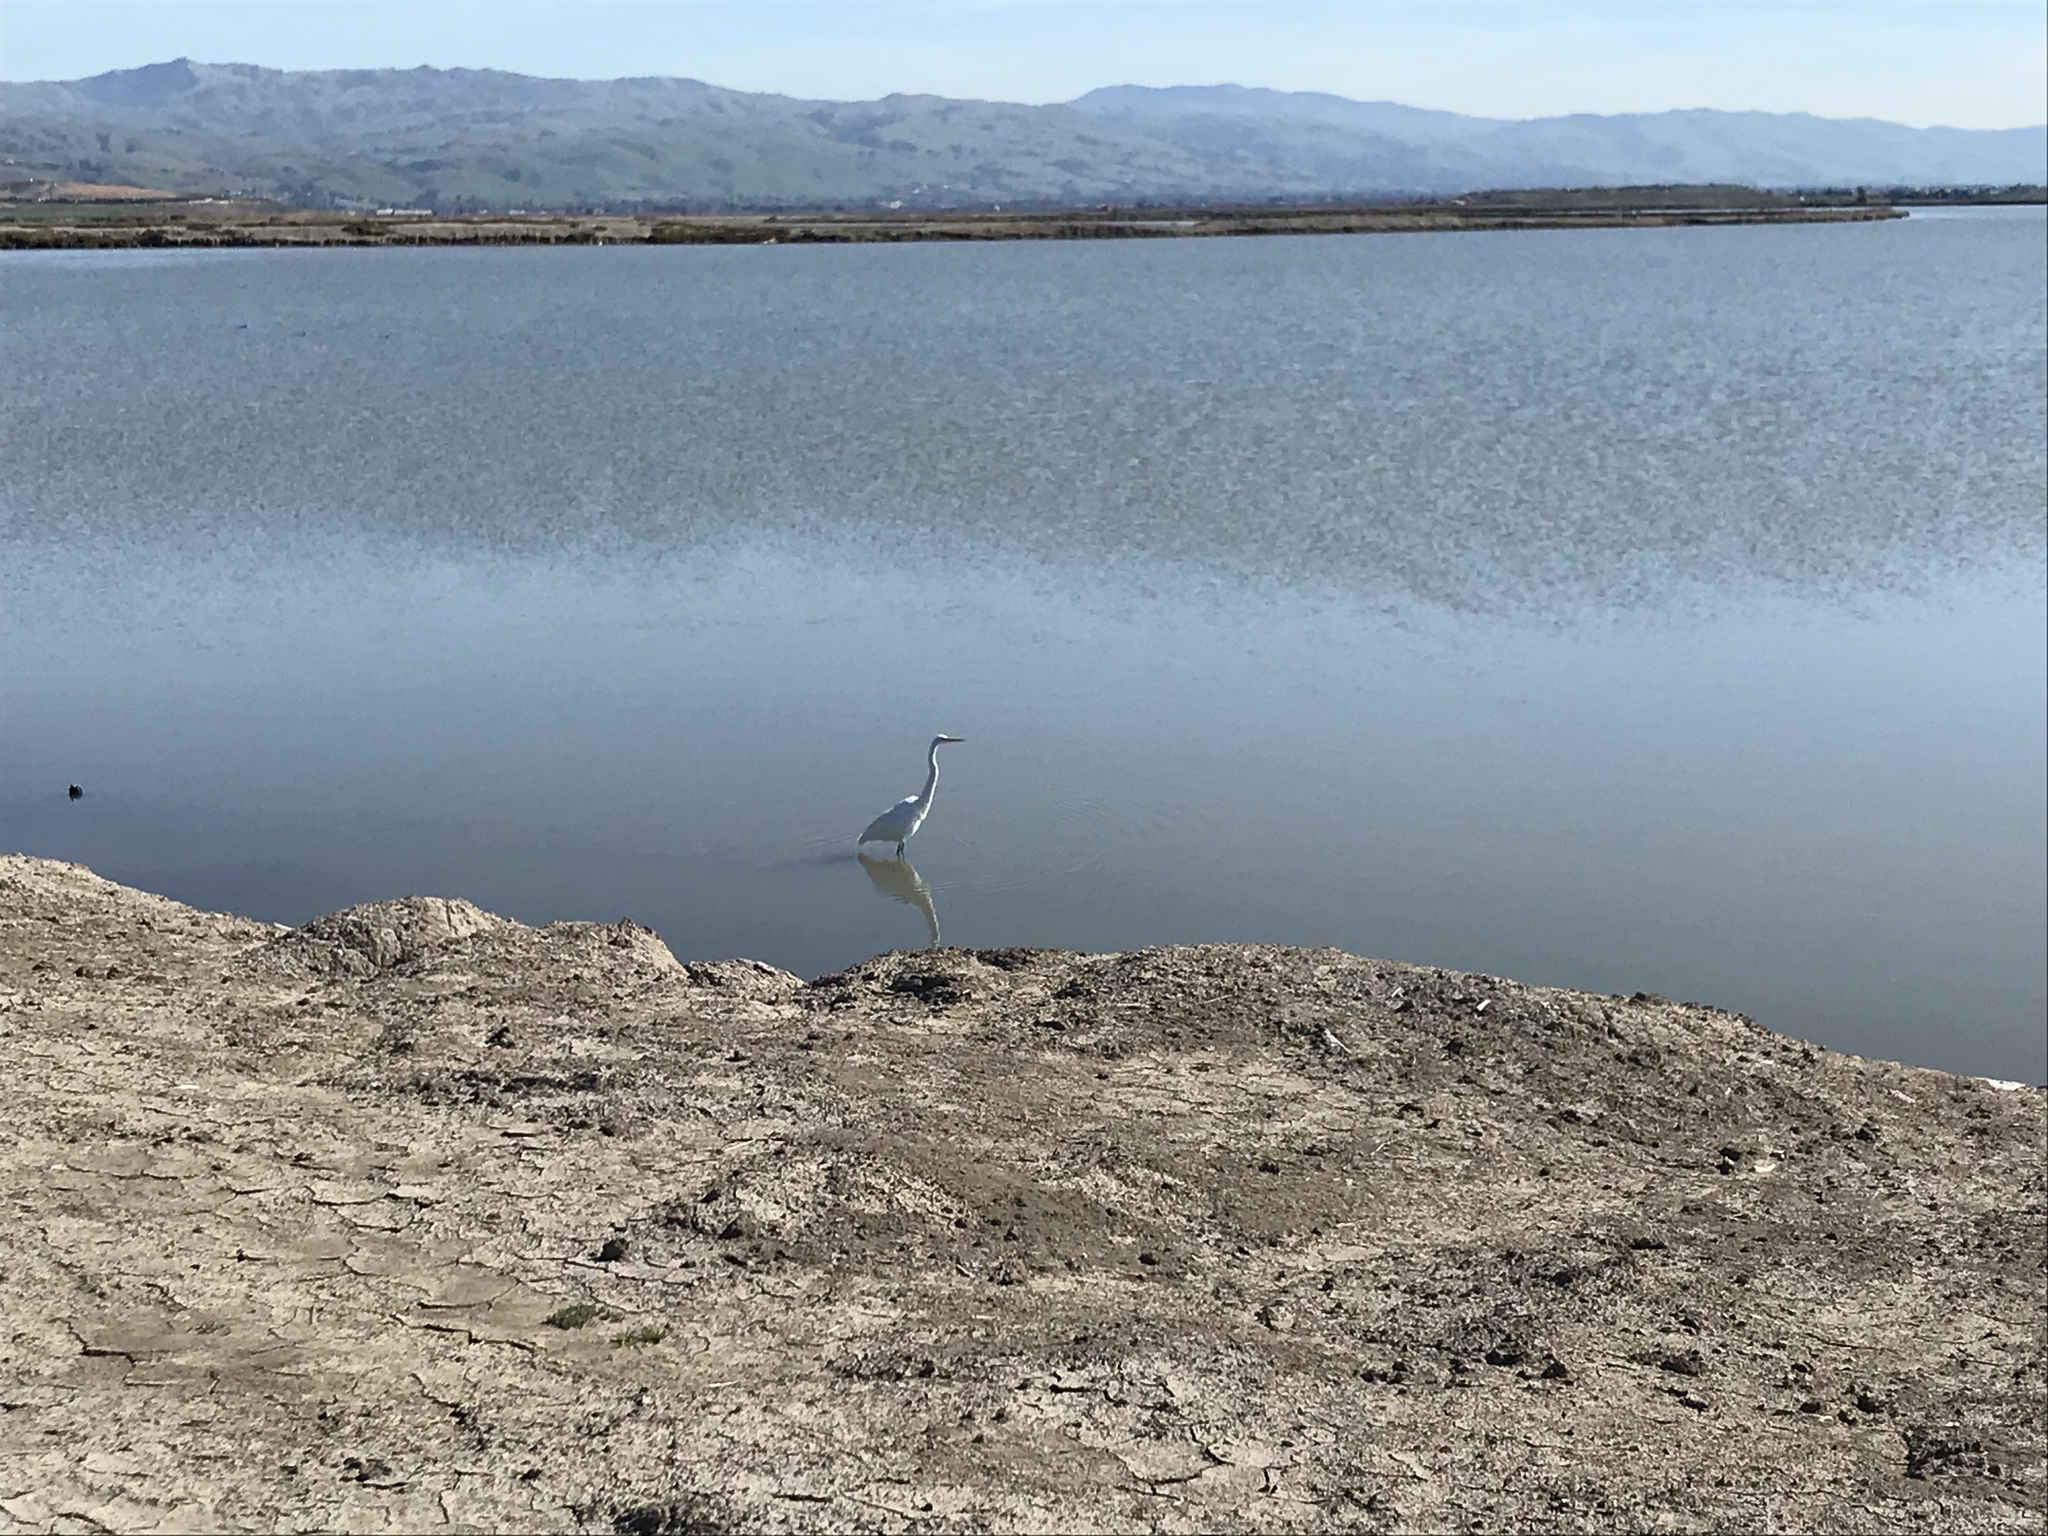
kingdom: Animalia
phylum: Chordata
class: Aves
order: Pelecaniformes
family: Ardeidae
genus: Ardea
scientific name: Ardea alba
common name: Great egret
